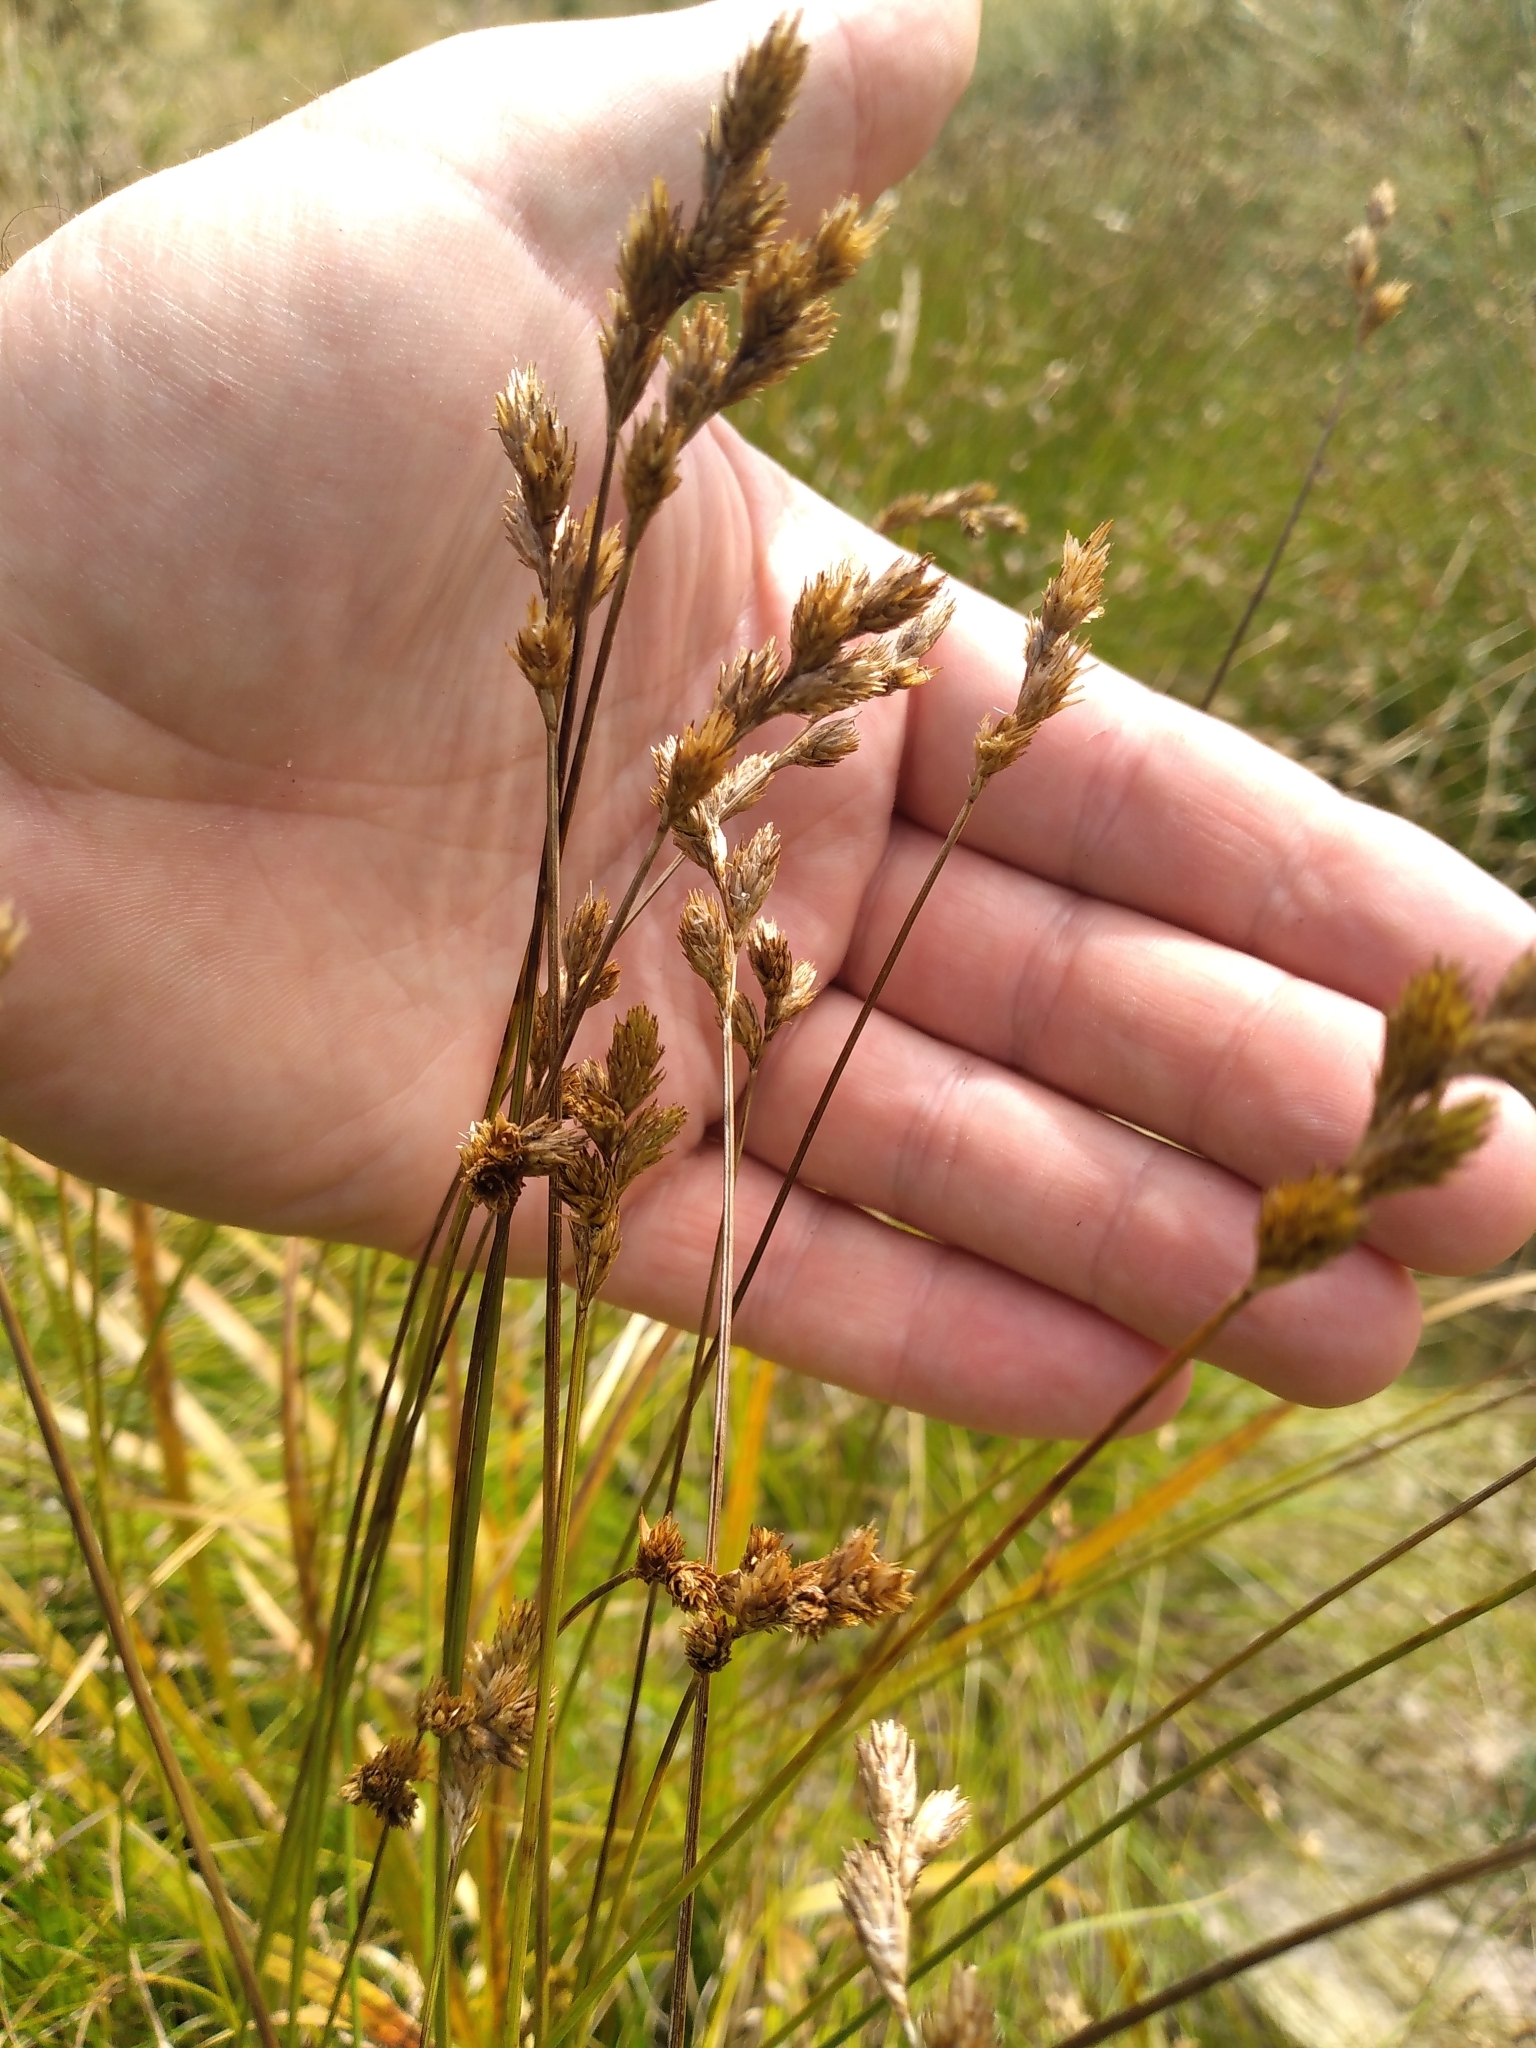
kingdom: Plantae
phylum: Tracheophyta
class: Liliopsida
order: Poales
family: Cyperaceae
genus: Carex
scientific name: Carex leporina
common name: Oval sedge
